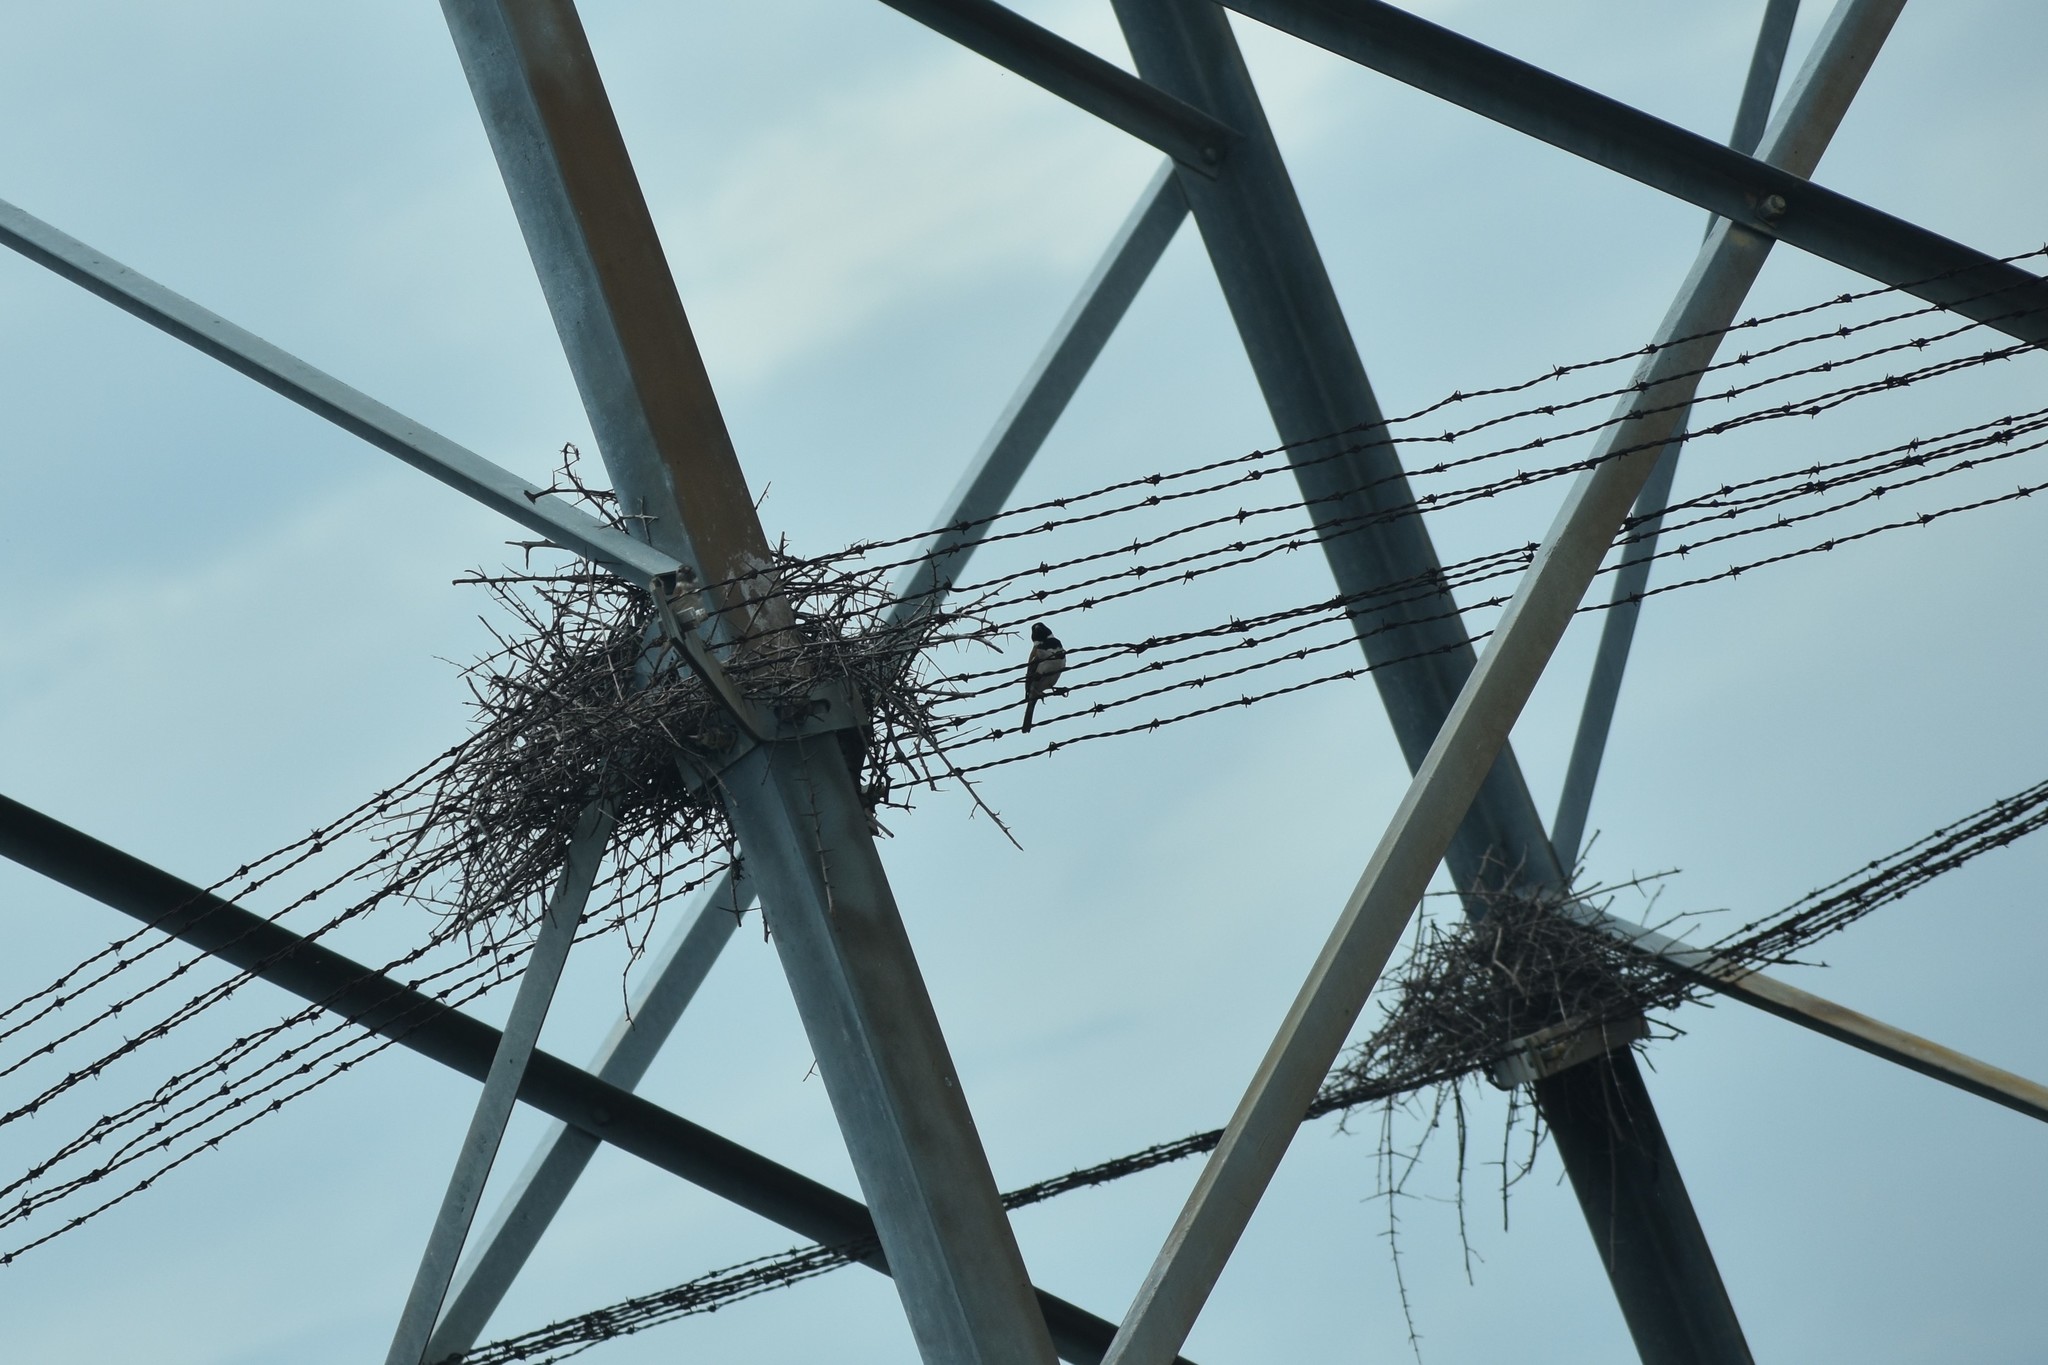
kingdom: Animalia
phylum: Chordata
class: Aves
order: Passeriformes
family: Passeridae
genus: Passer
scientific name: Passer melanurus
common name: Cape sparrow
